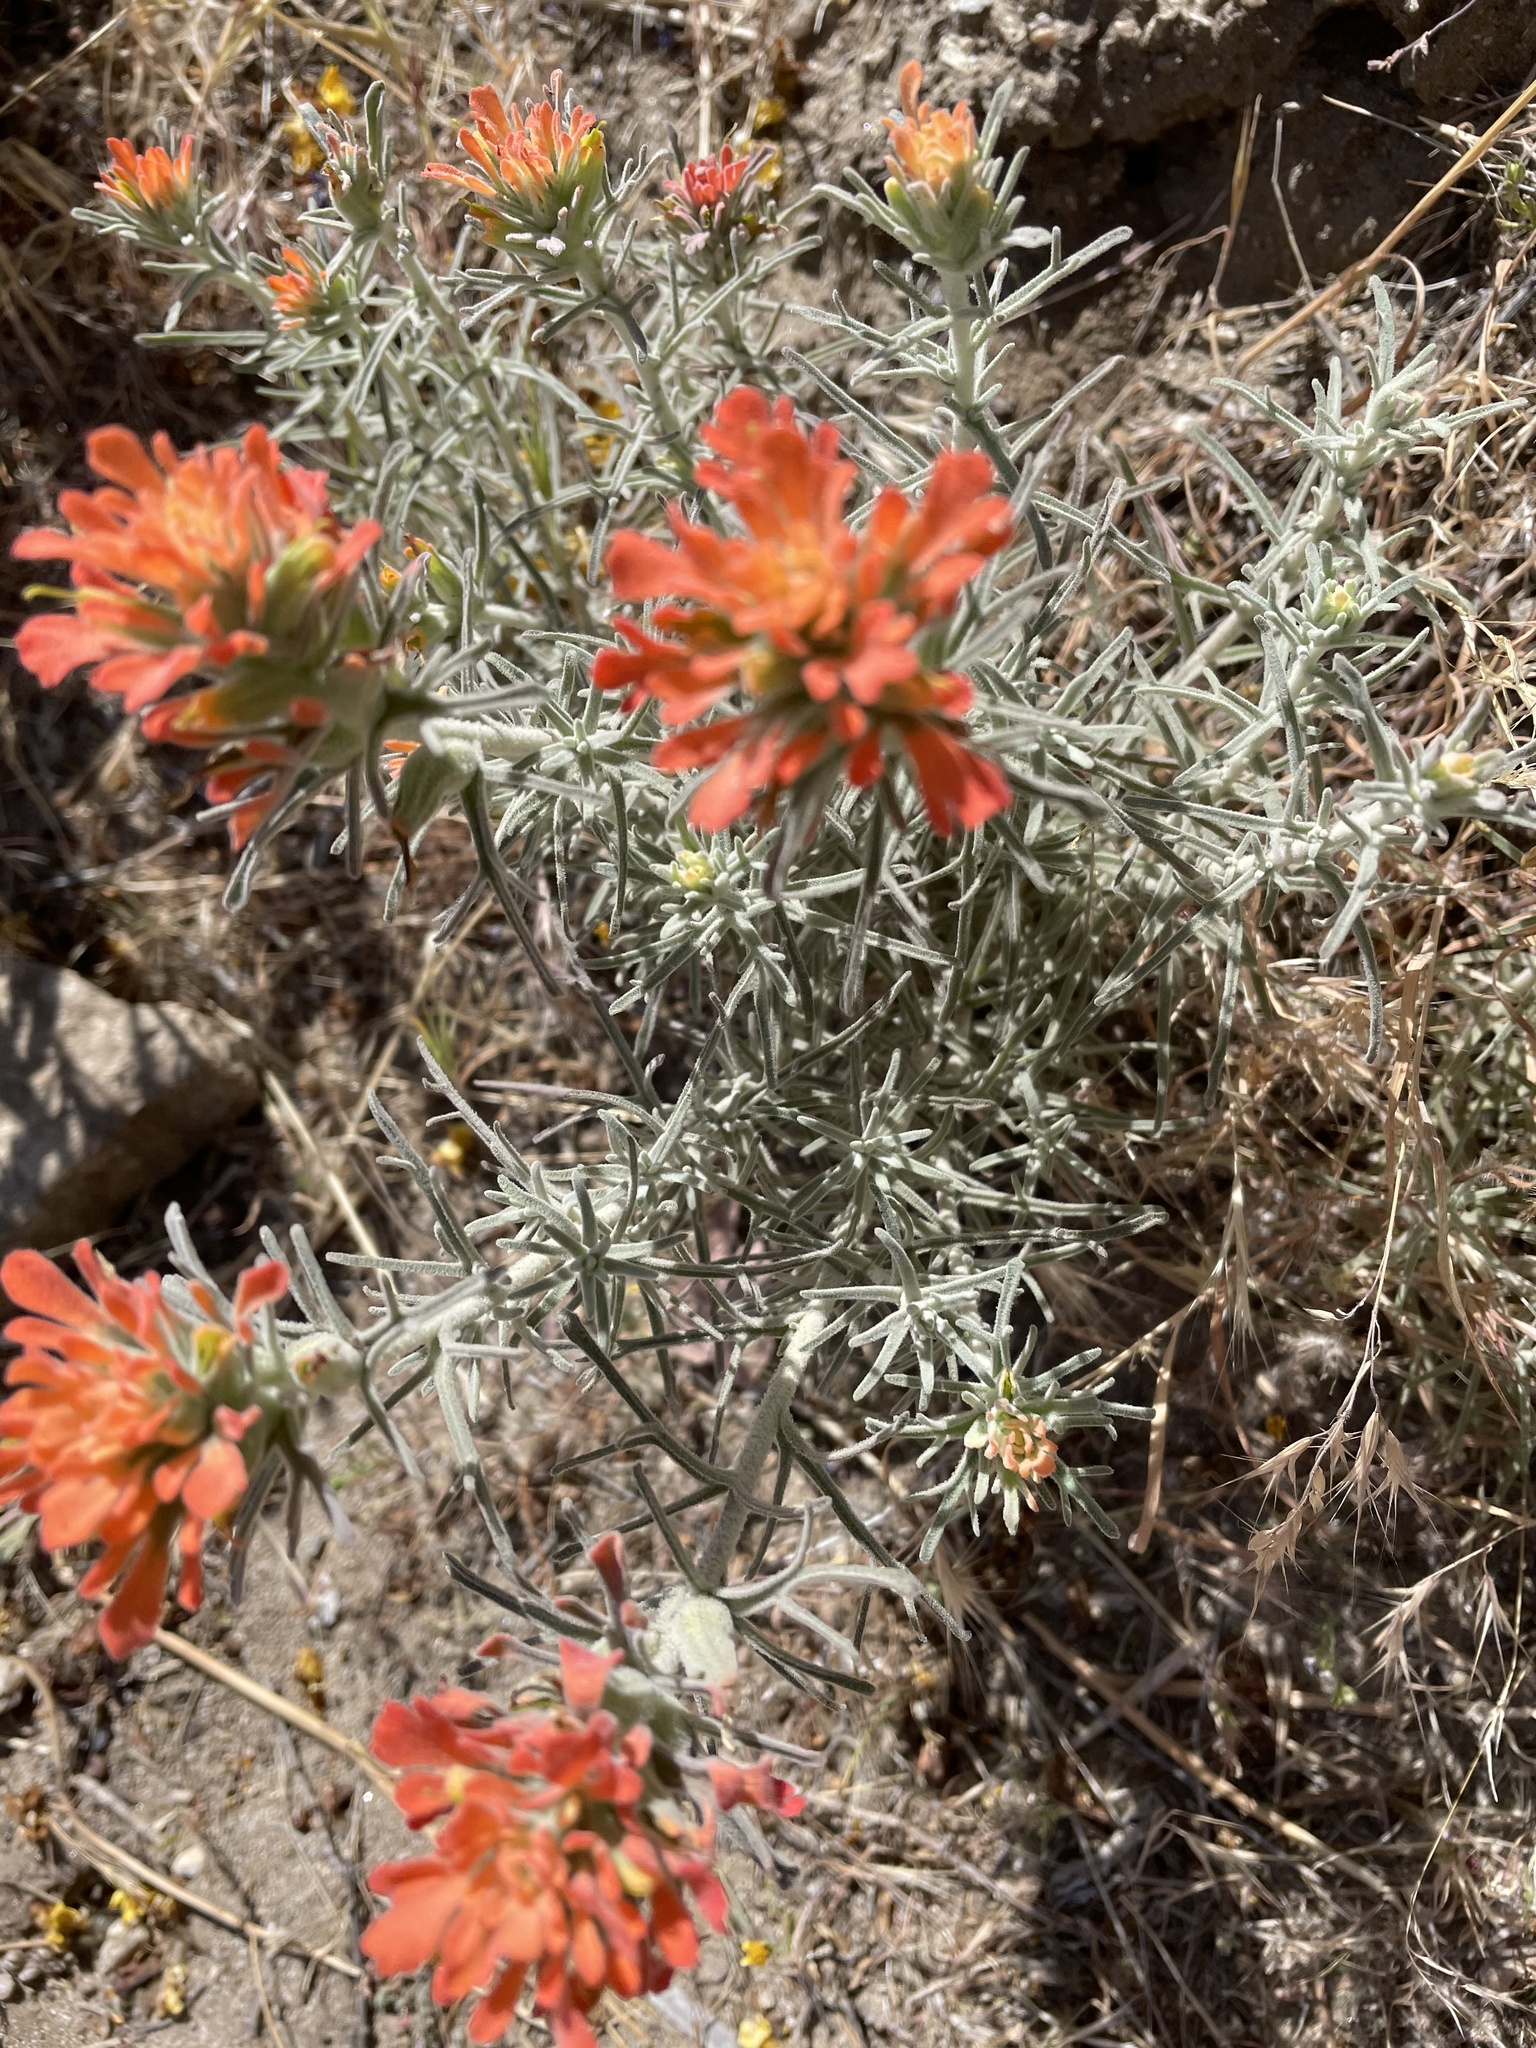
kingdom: Plantae
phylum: Tracheophyta
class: Magnoliopsida
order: Lamiales
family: Orobanchaceae
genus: Castilleja
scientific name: Castilleja foliolosa
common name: Woolly indian paintbrush
